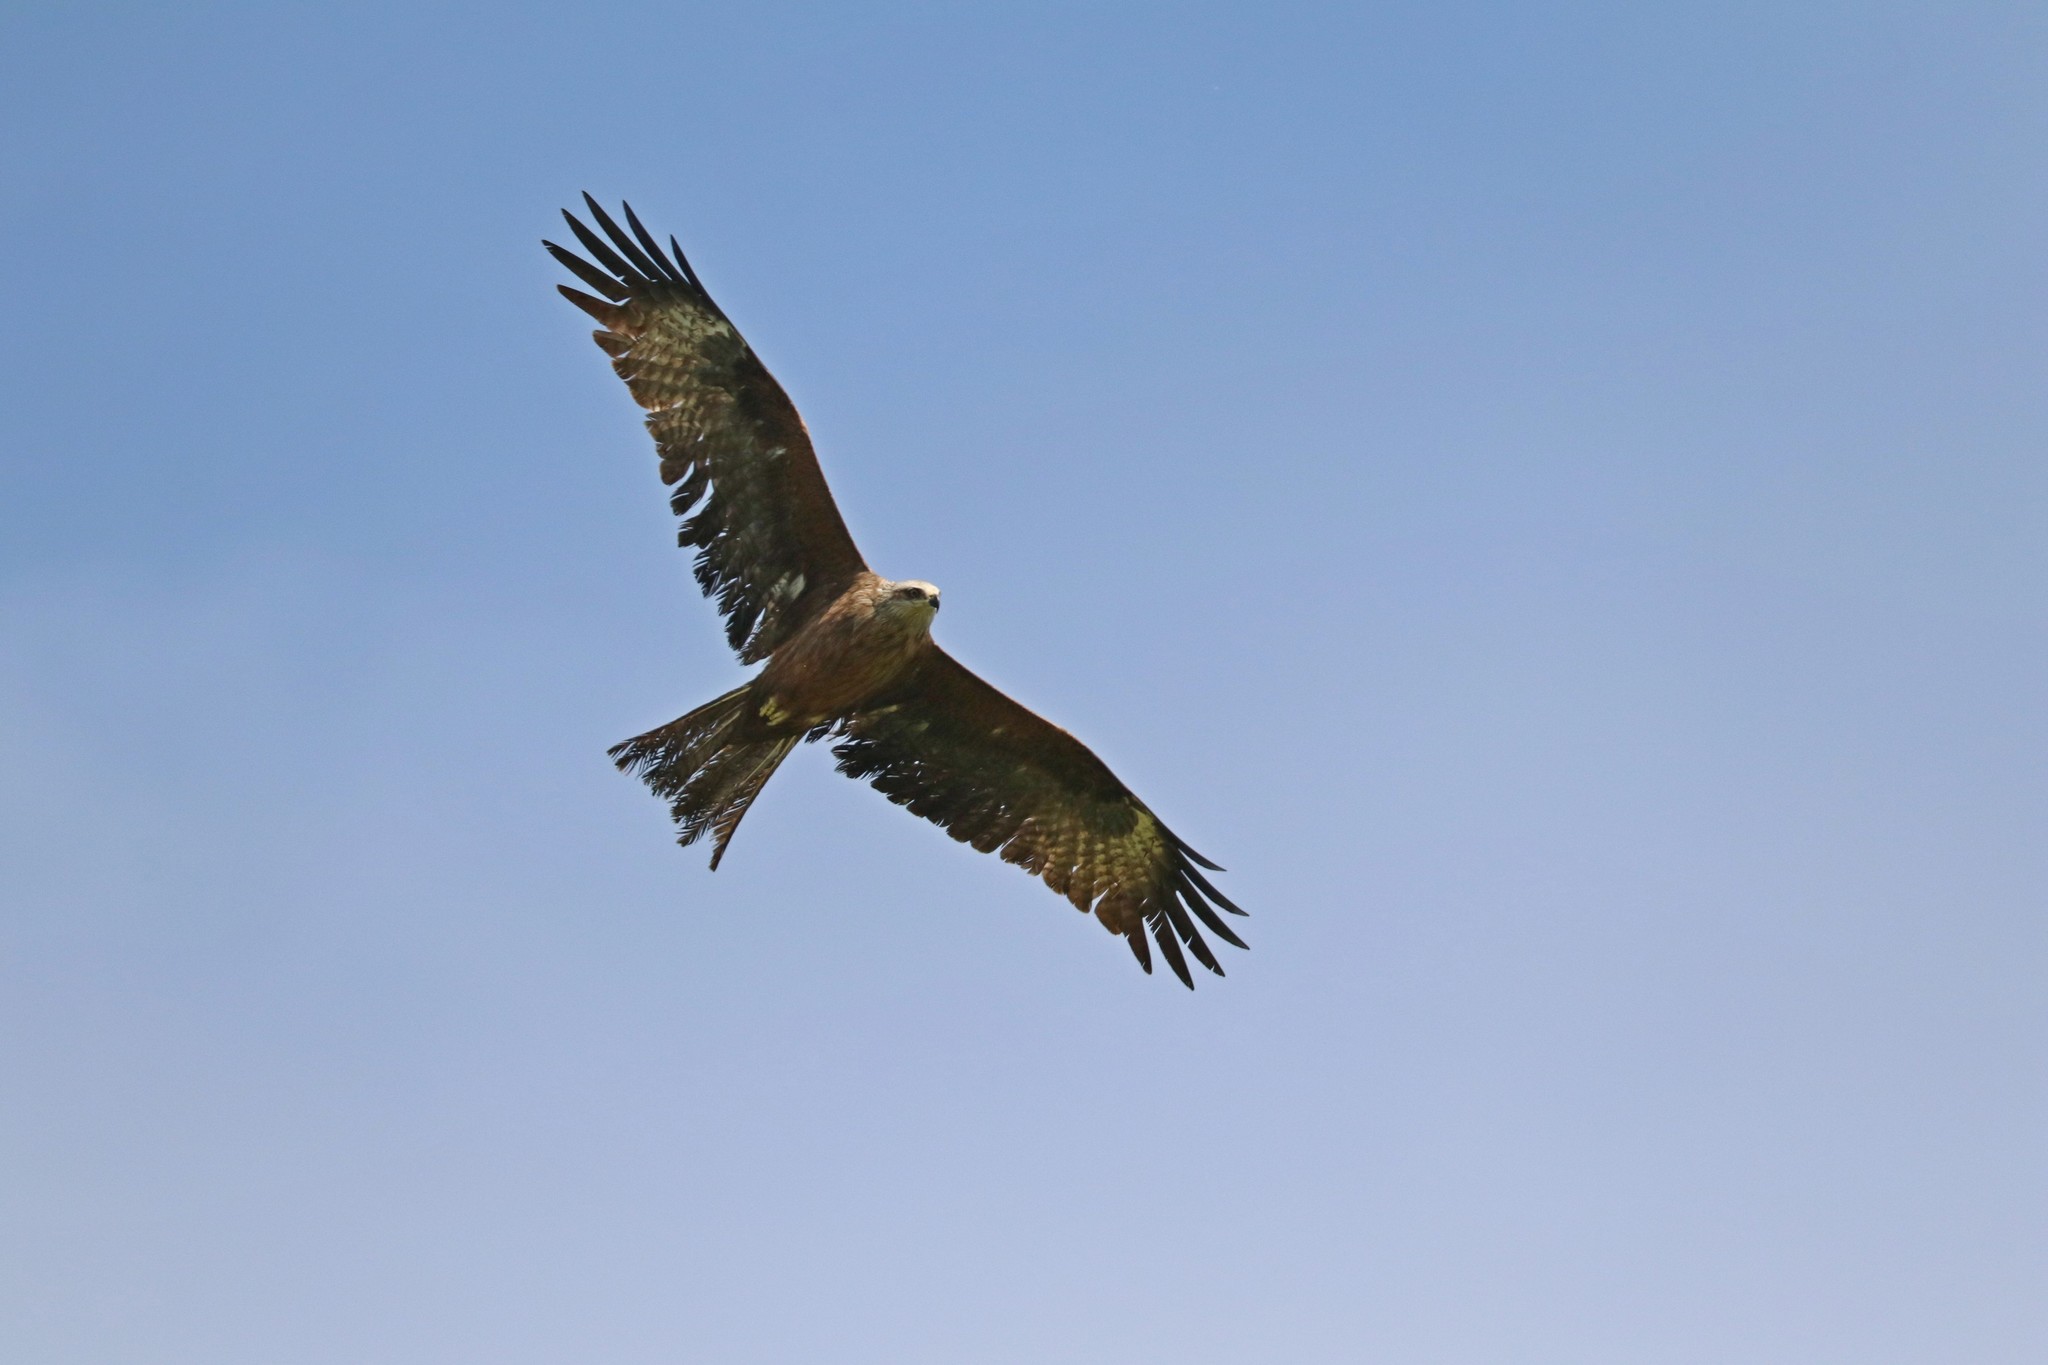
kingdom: Animalia
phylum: Chordata
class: Aves
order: Accipitriformes
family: Accipitridae
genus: Milvus
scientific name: Milvus migrans
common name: Black kite
